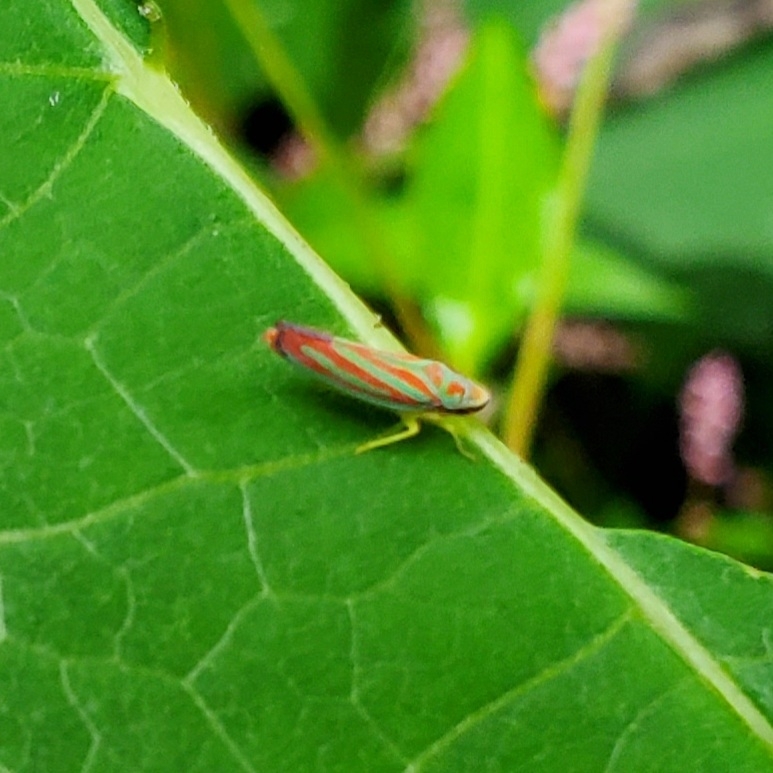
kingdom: Animalia
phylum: Arthropoda
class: Insecta
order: Hemiptera
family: Cicadellidae
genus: Graphocephala
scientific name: Graphocephala coccinea
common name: Candy-striped leafhopper
